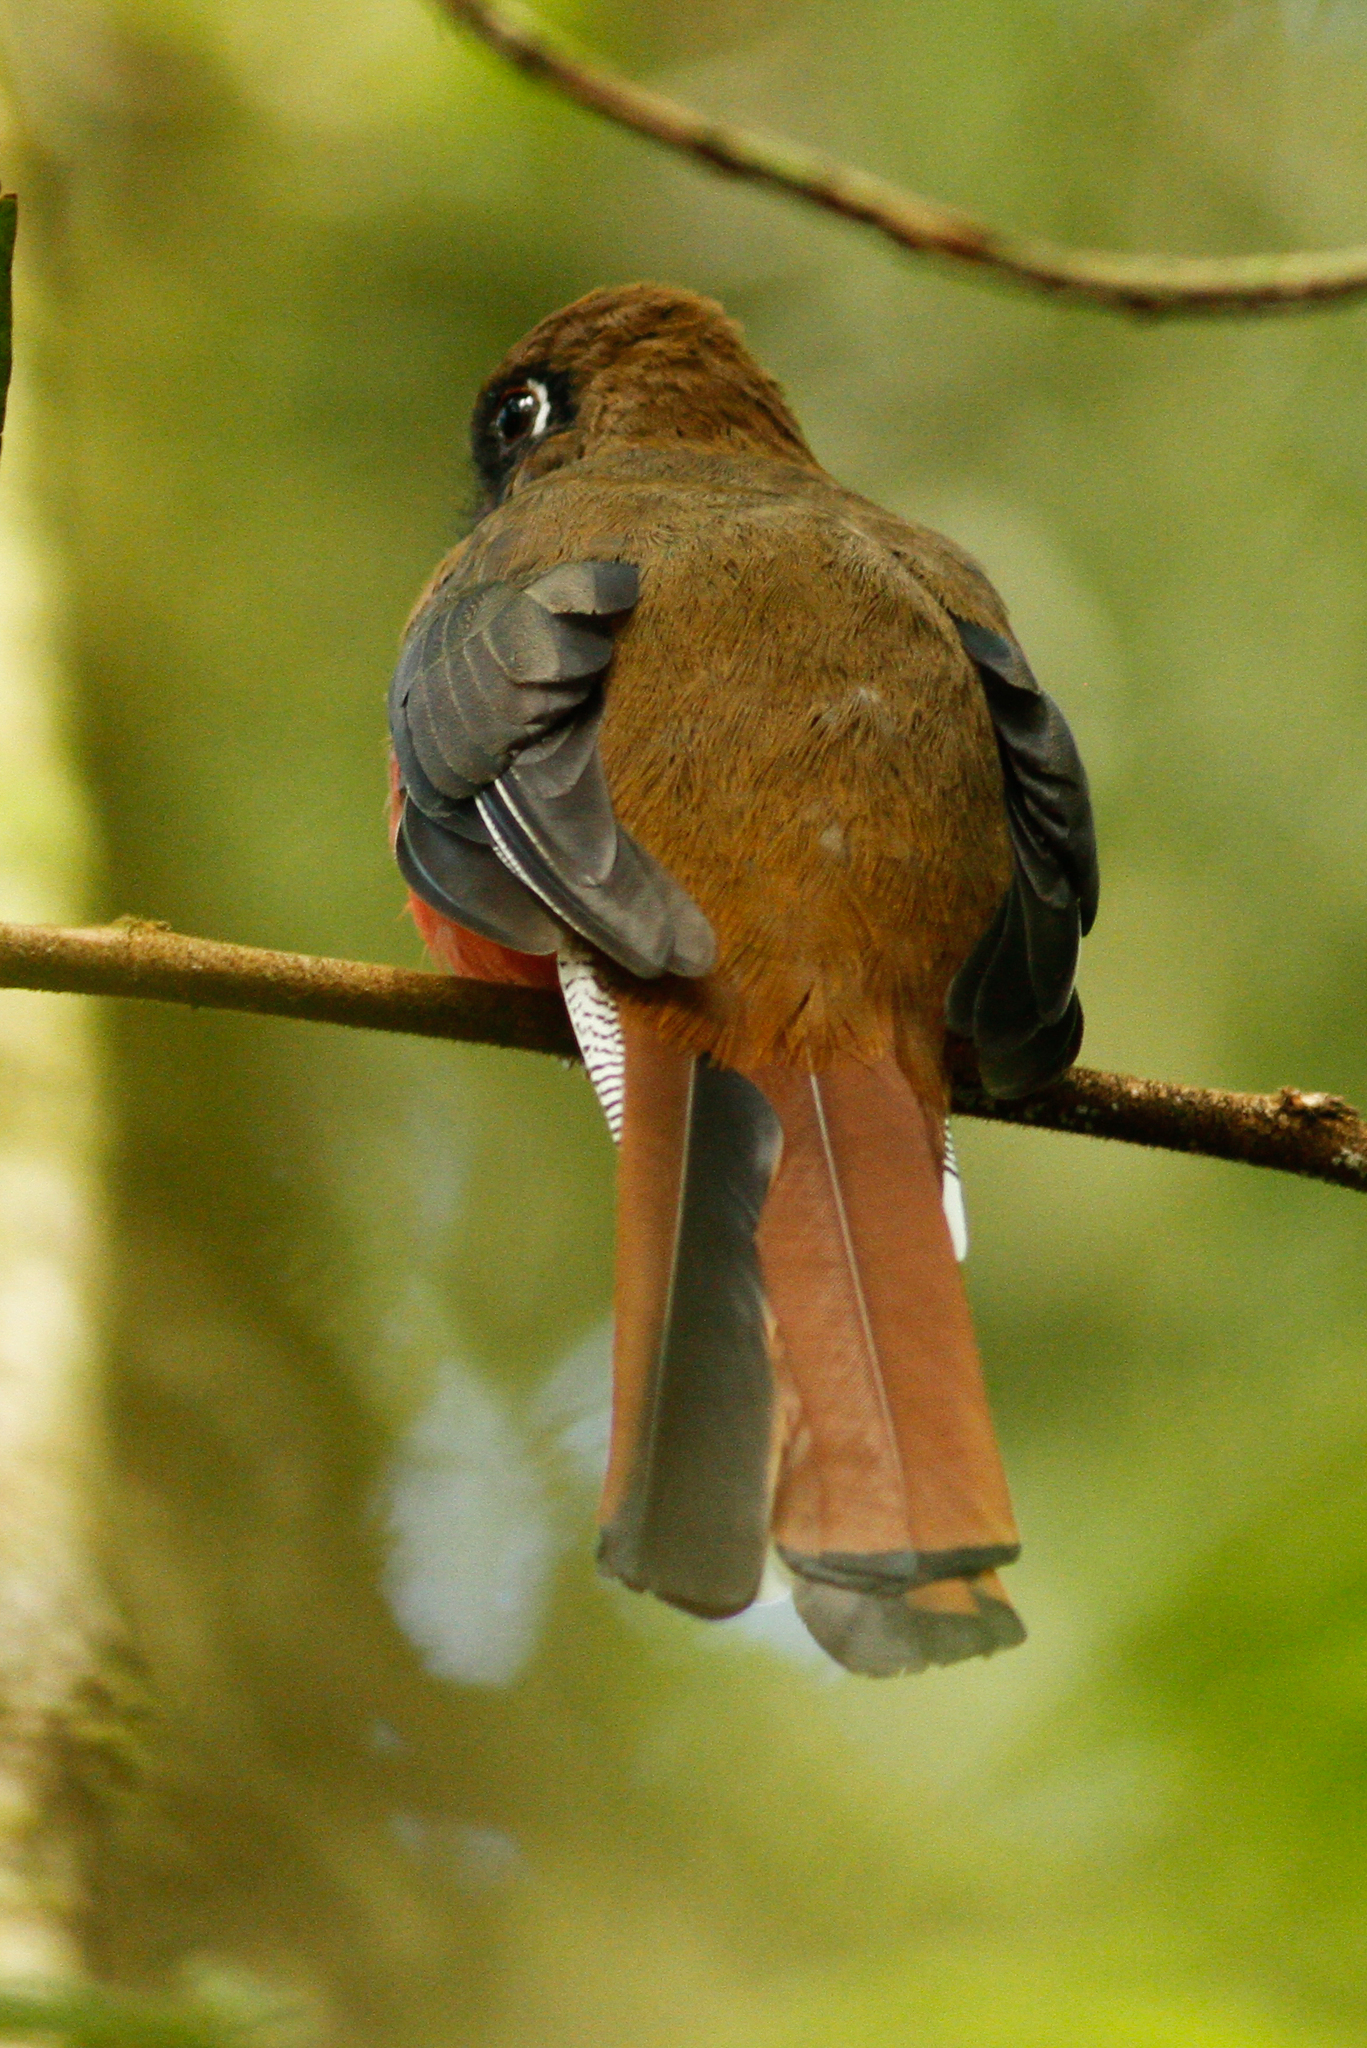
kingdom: Animalia
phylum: Chordata
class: Aves
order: Trogoniformes
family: Trogonidae
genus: Trogon
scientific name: Trogon personatus
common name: Masked trogon
